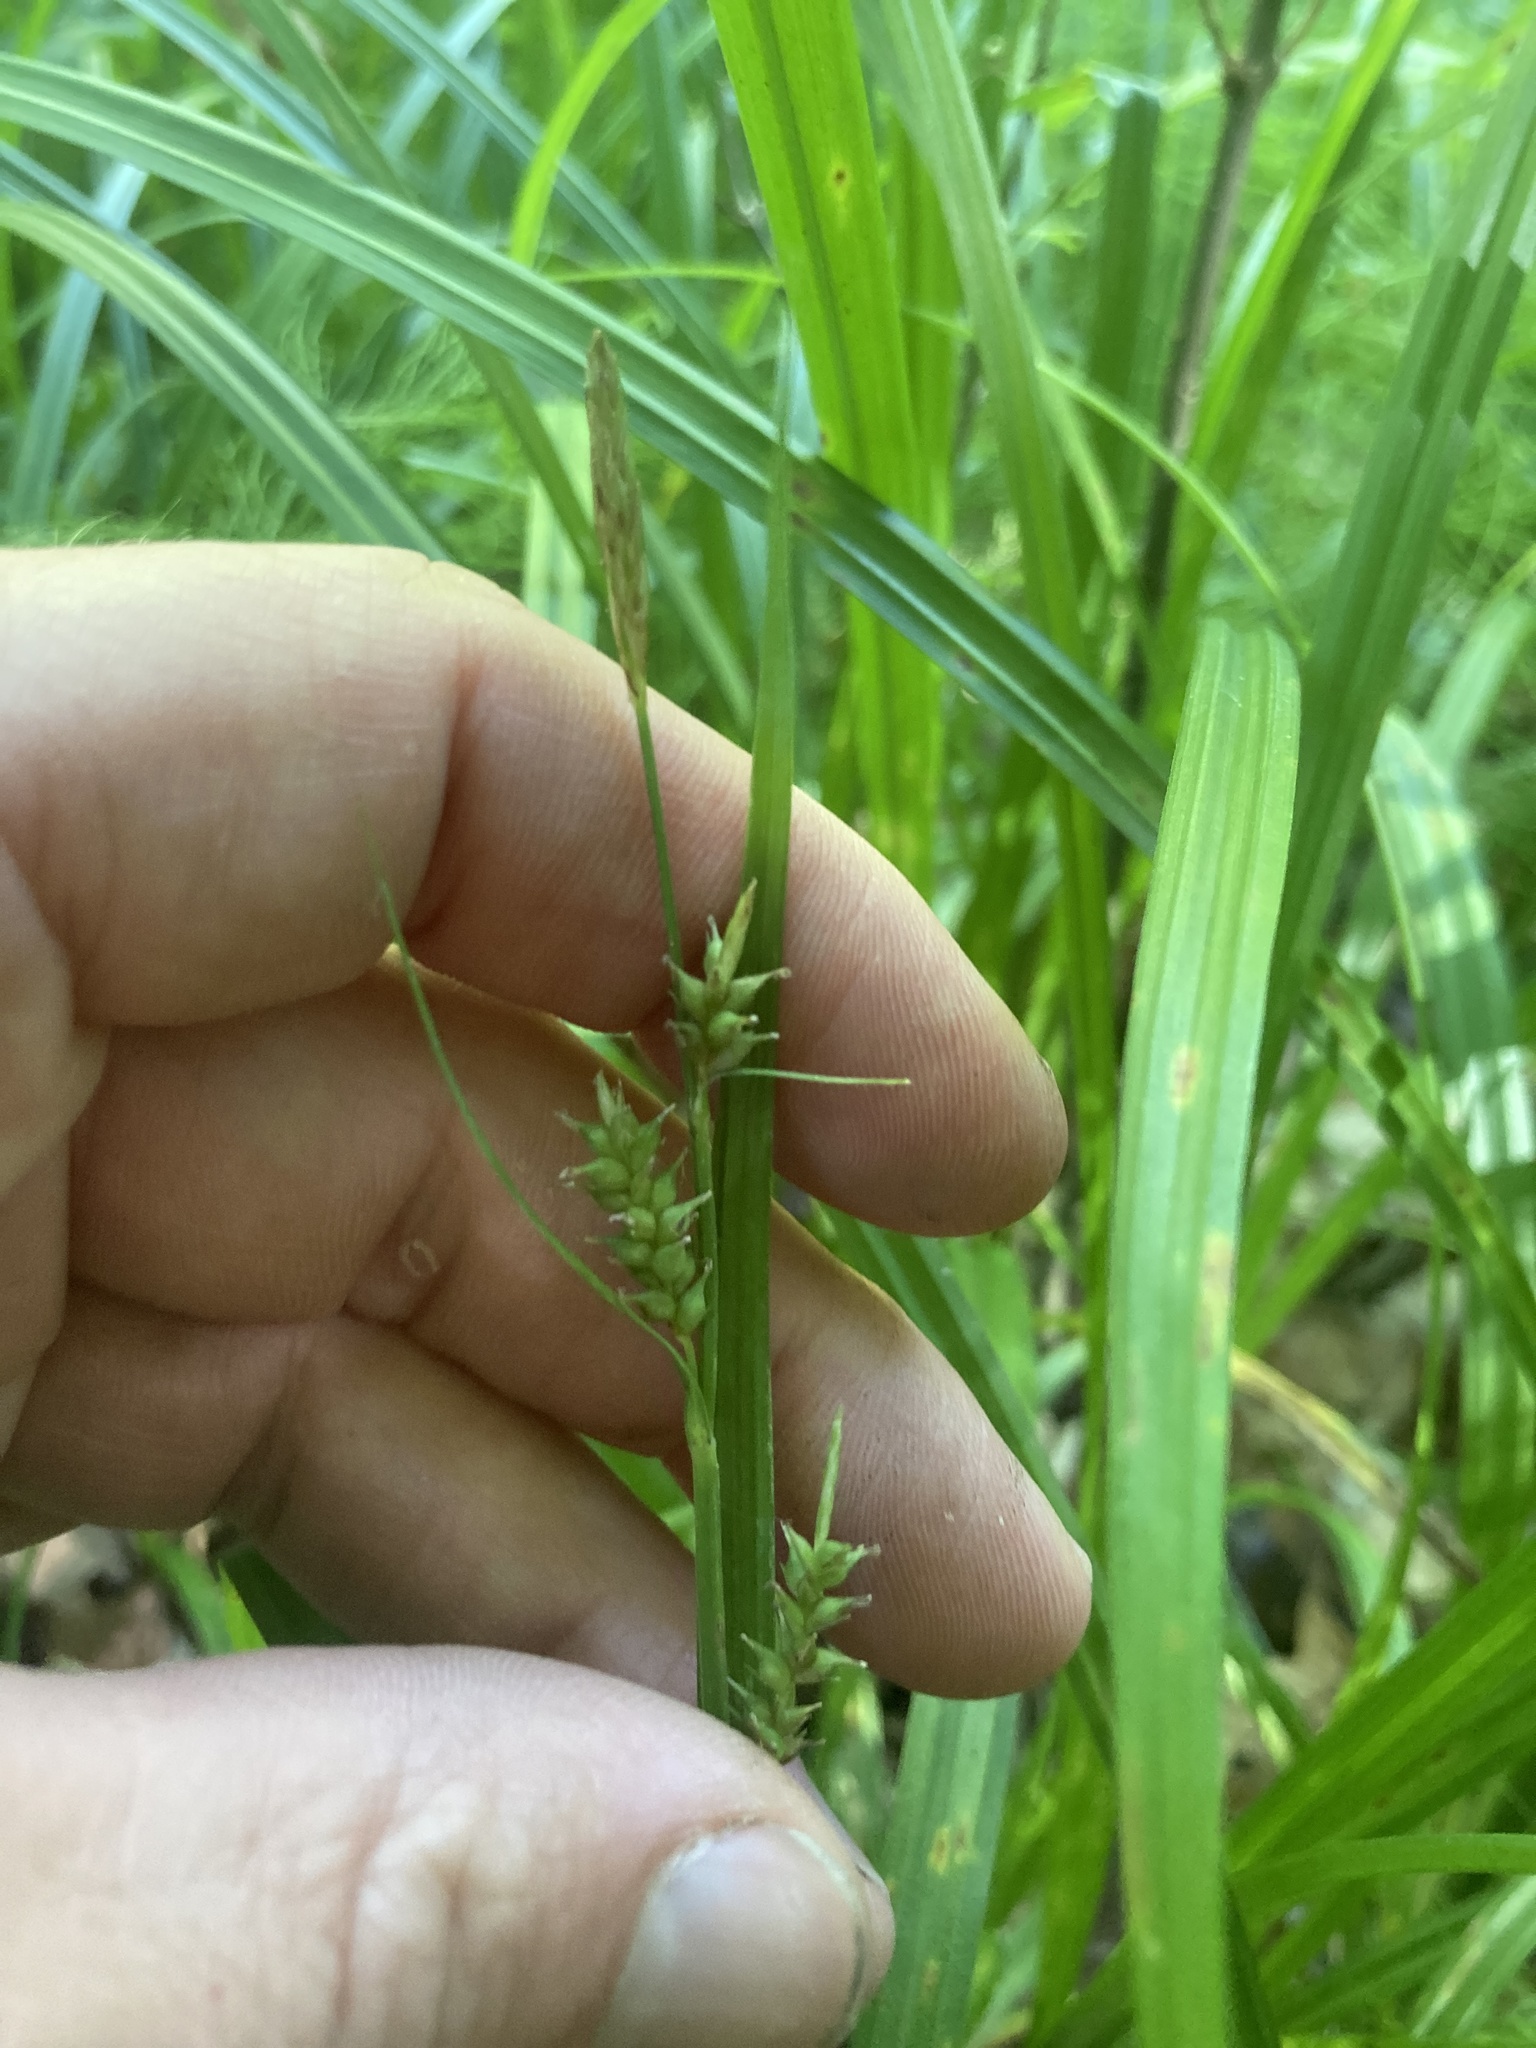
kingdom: Plantae
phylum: Tracheophyta
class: Liliopsida
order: Poales
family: Cyperaceae
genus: Carex
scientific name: Carex scabrata
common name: Eastern rough sedge
